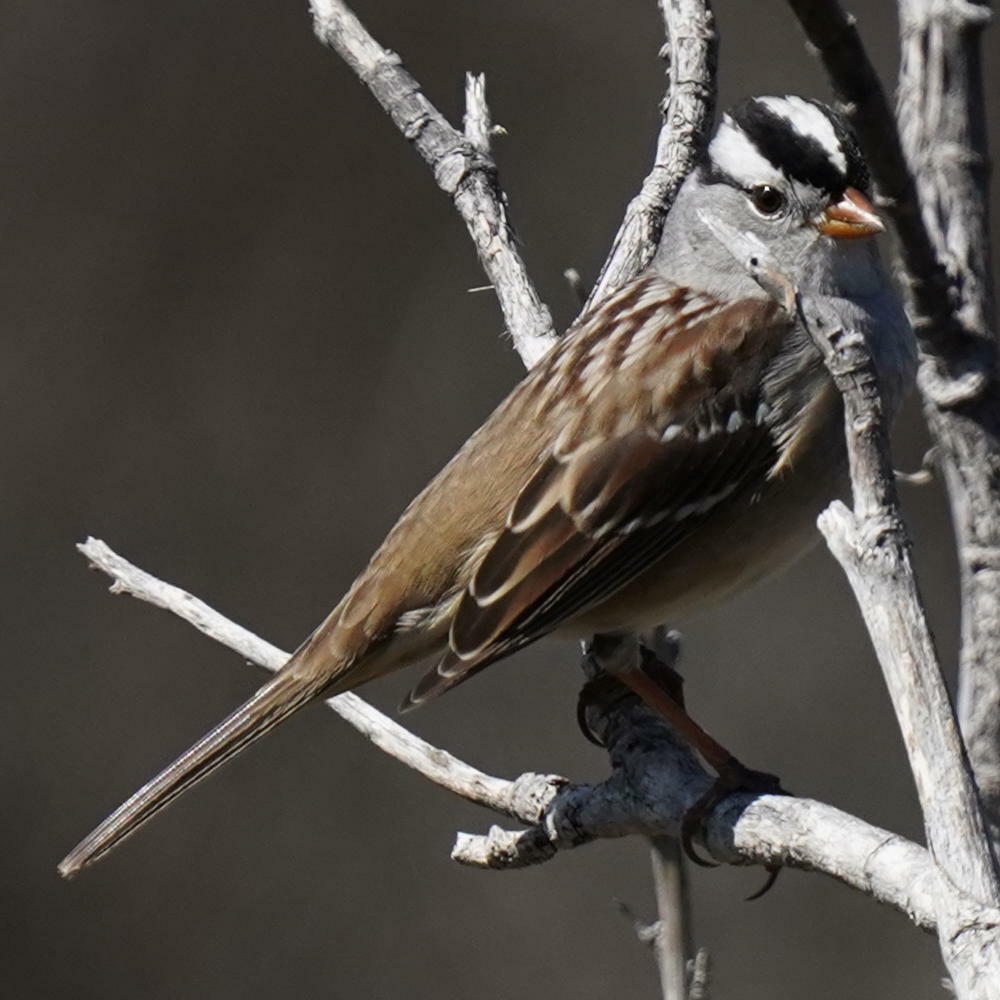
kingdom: Animalia
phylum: Chordata
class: Aves
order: Passeriformes
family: Passerellidae
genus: Zonotrichia
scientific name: Zonotrichia leucophrys
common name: White-crowned sparrow
